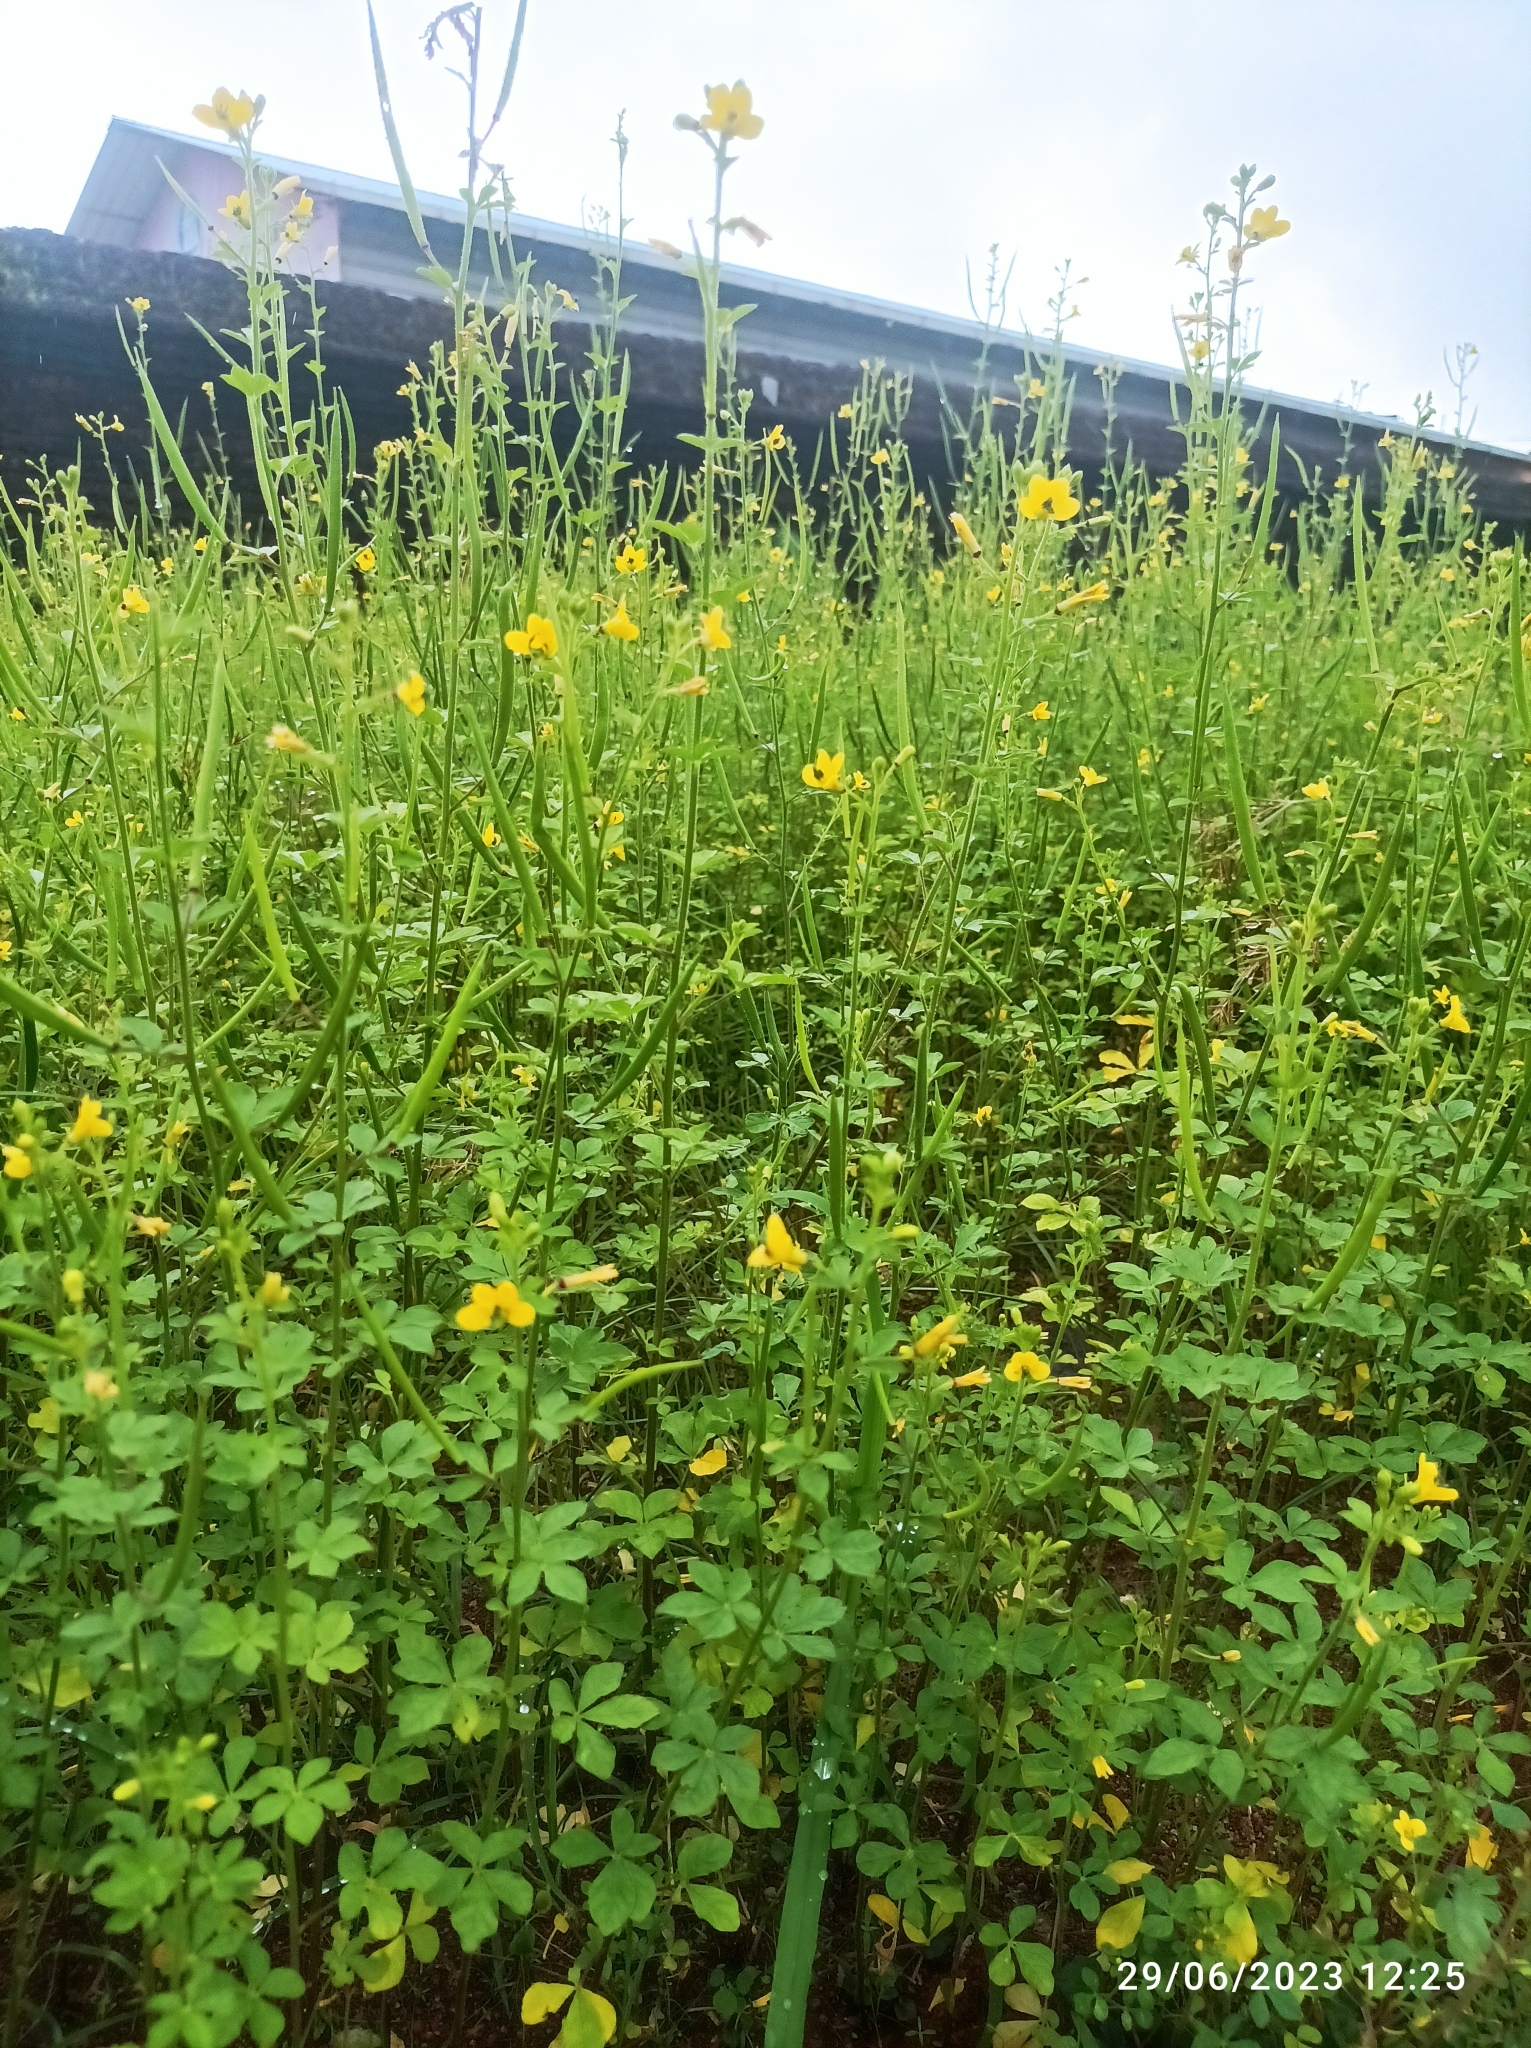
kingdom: Plantae
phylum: Tracheophyta
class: Magnoliopsida
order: Brassicales
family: Cleomaceae
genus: Arivela
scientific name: Arivela viscosa
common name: Asian spiderflower
